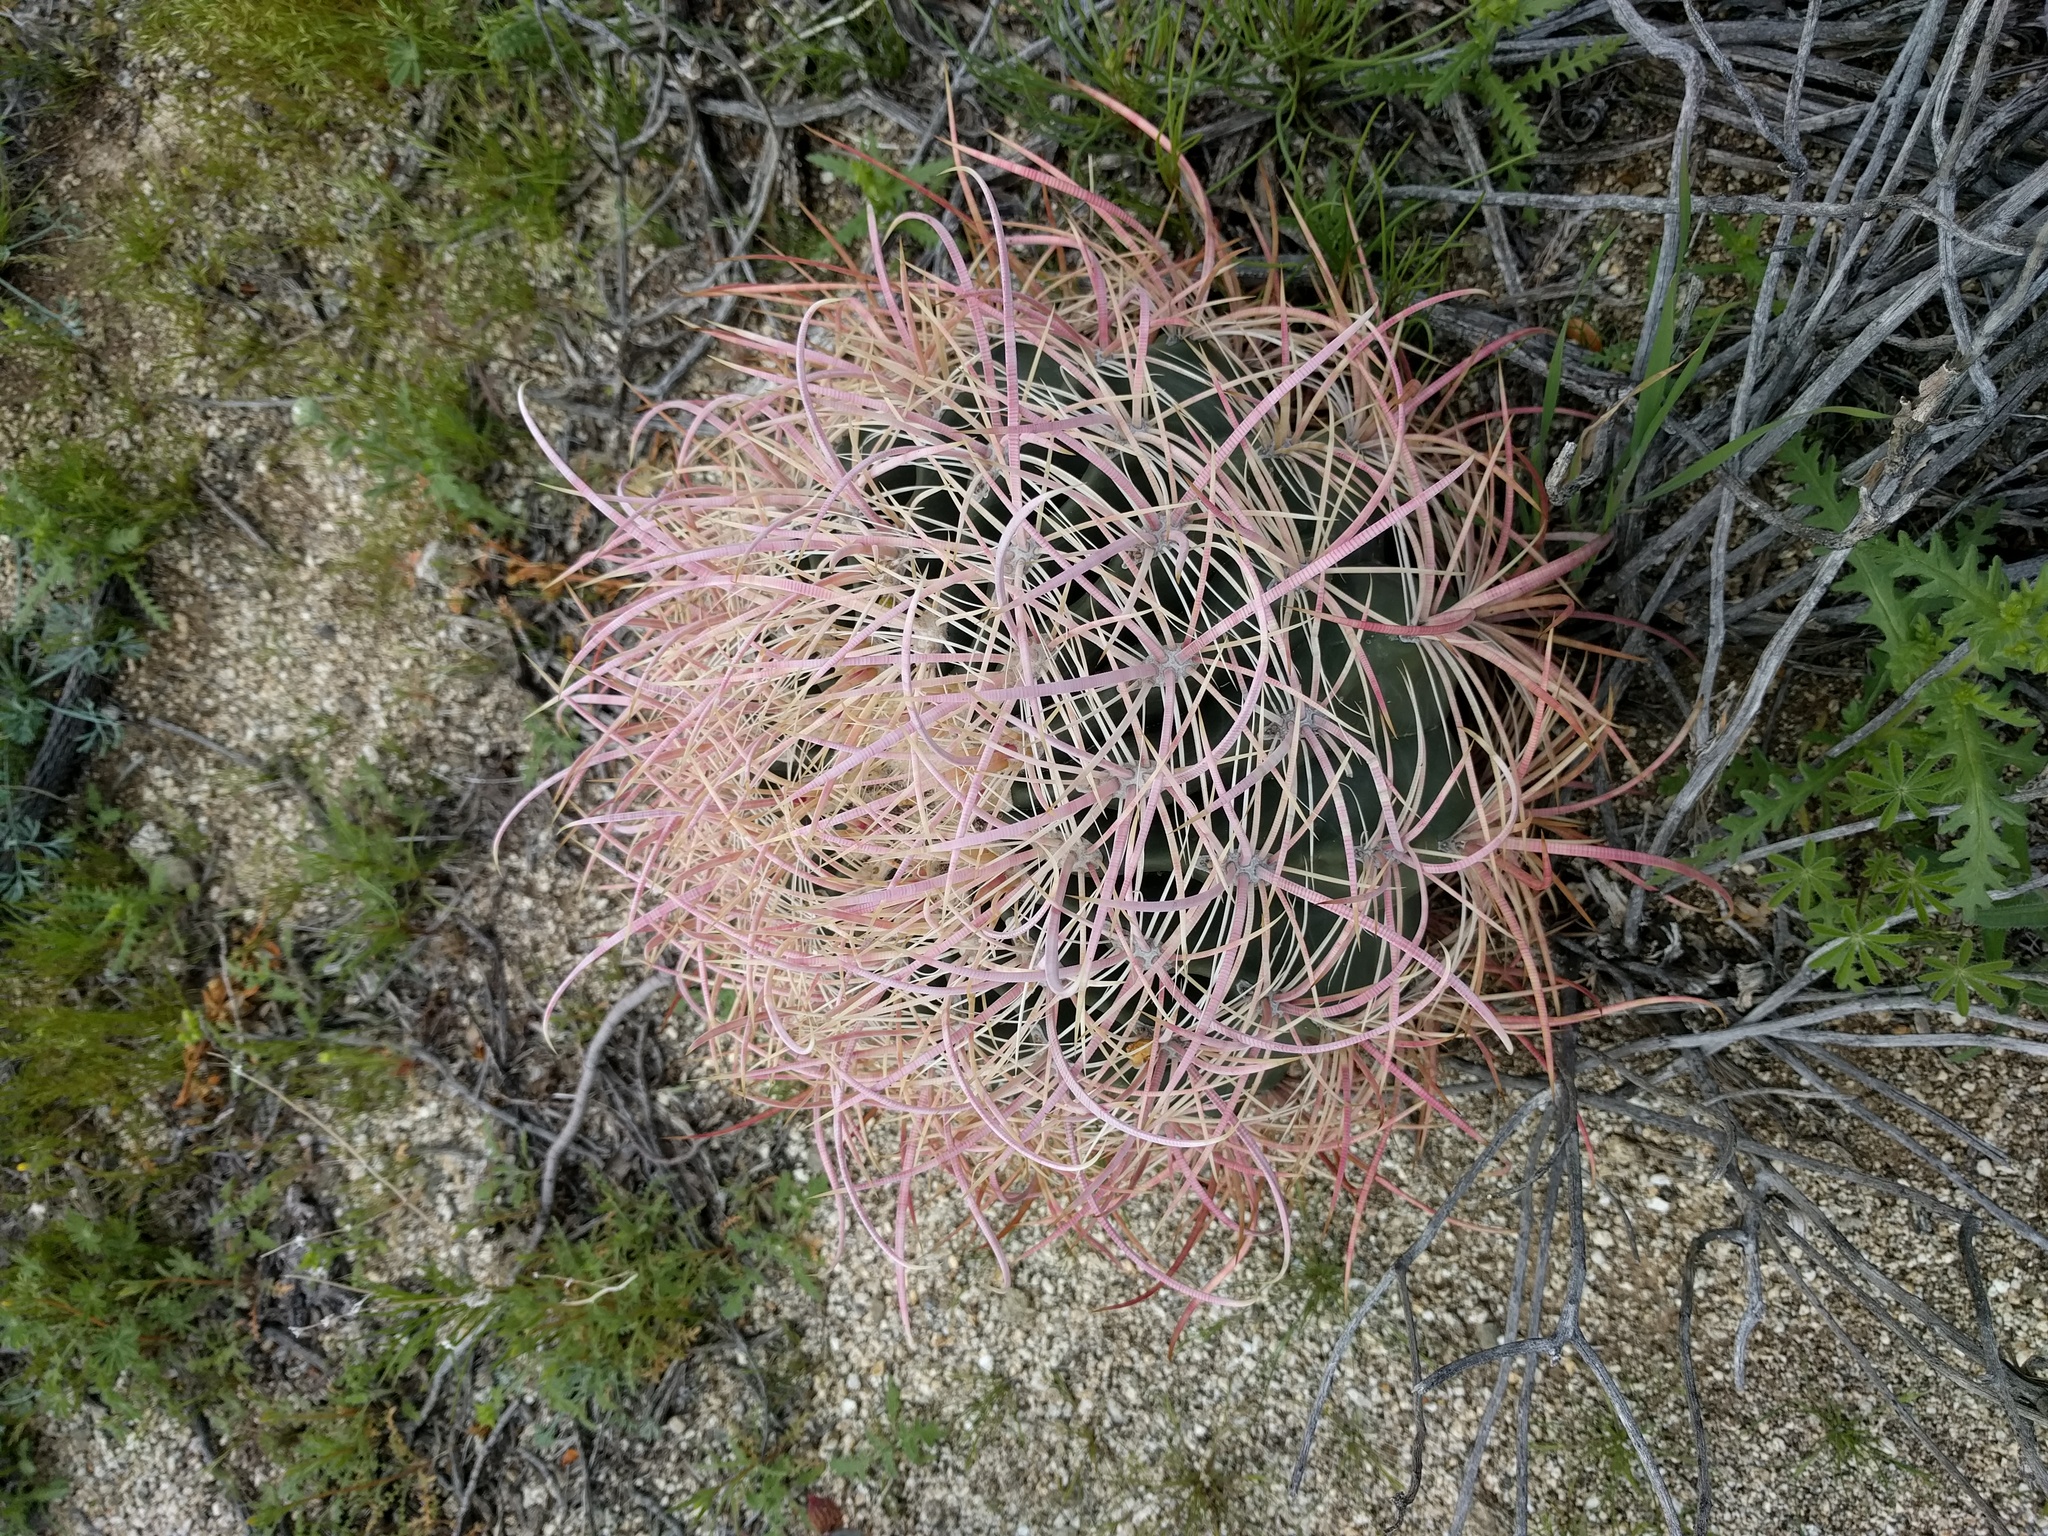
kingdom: Plantae
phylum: Tracheophyta
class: Magnoliopsida
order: Caryophyllales
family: Cactaceae
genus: Ferocactus
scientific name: Ferocactus cylindraceus
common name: California barrel cactus
